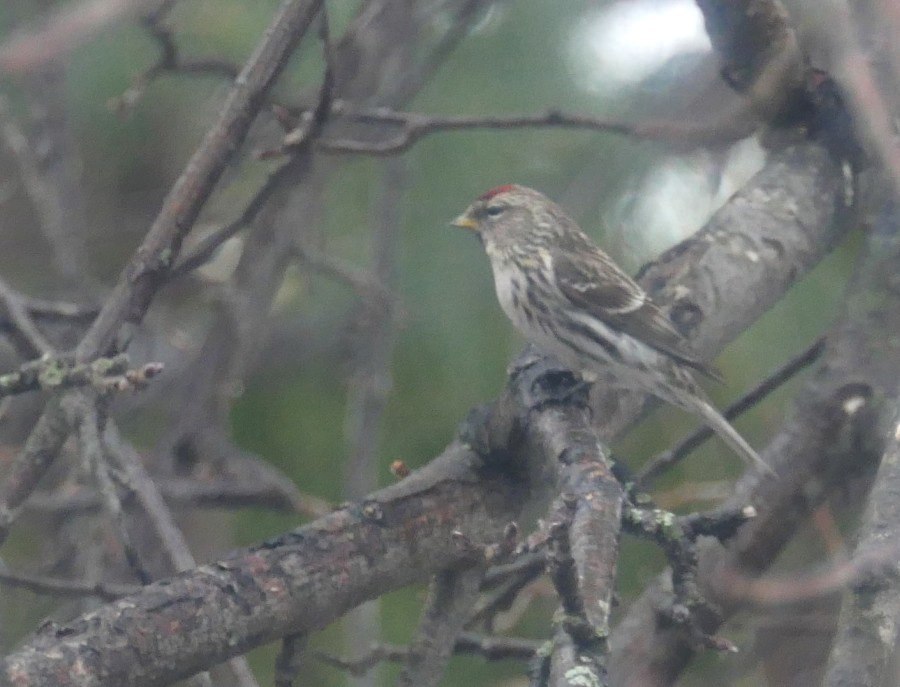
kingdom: Animalia
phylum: Chordata
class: Aves
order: Passeriformes
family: Fringillidae
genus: Acanthis
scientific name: Acanthis flammea
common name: Common redpoll
